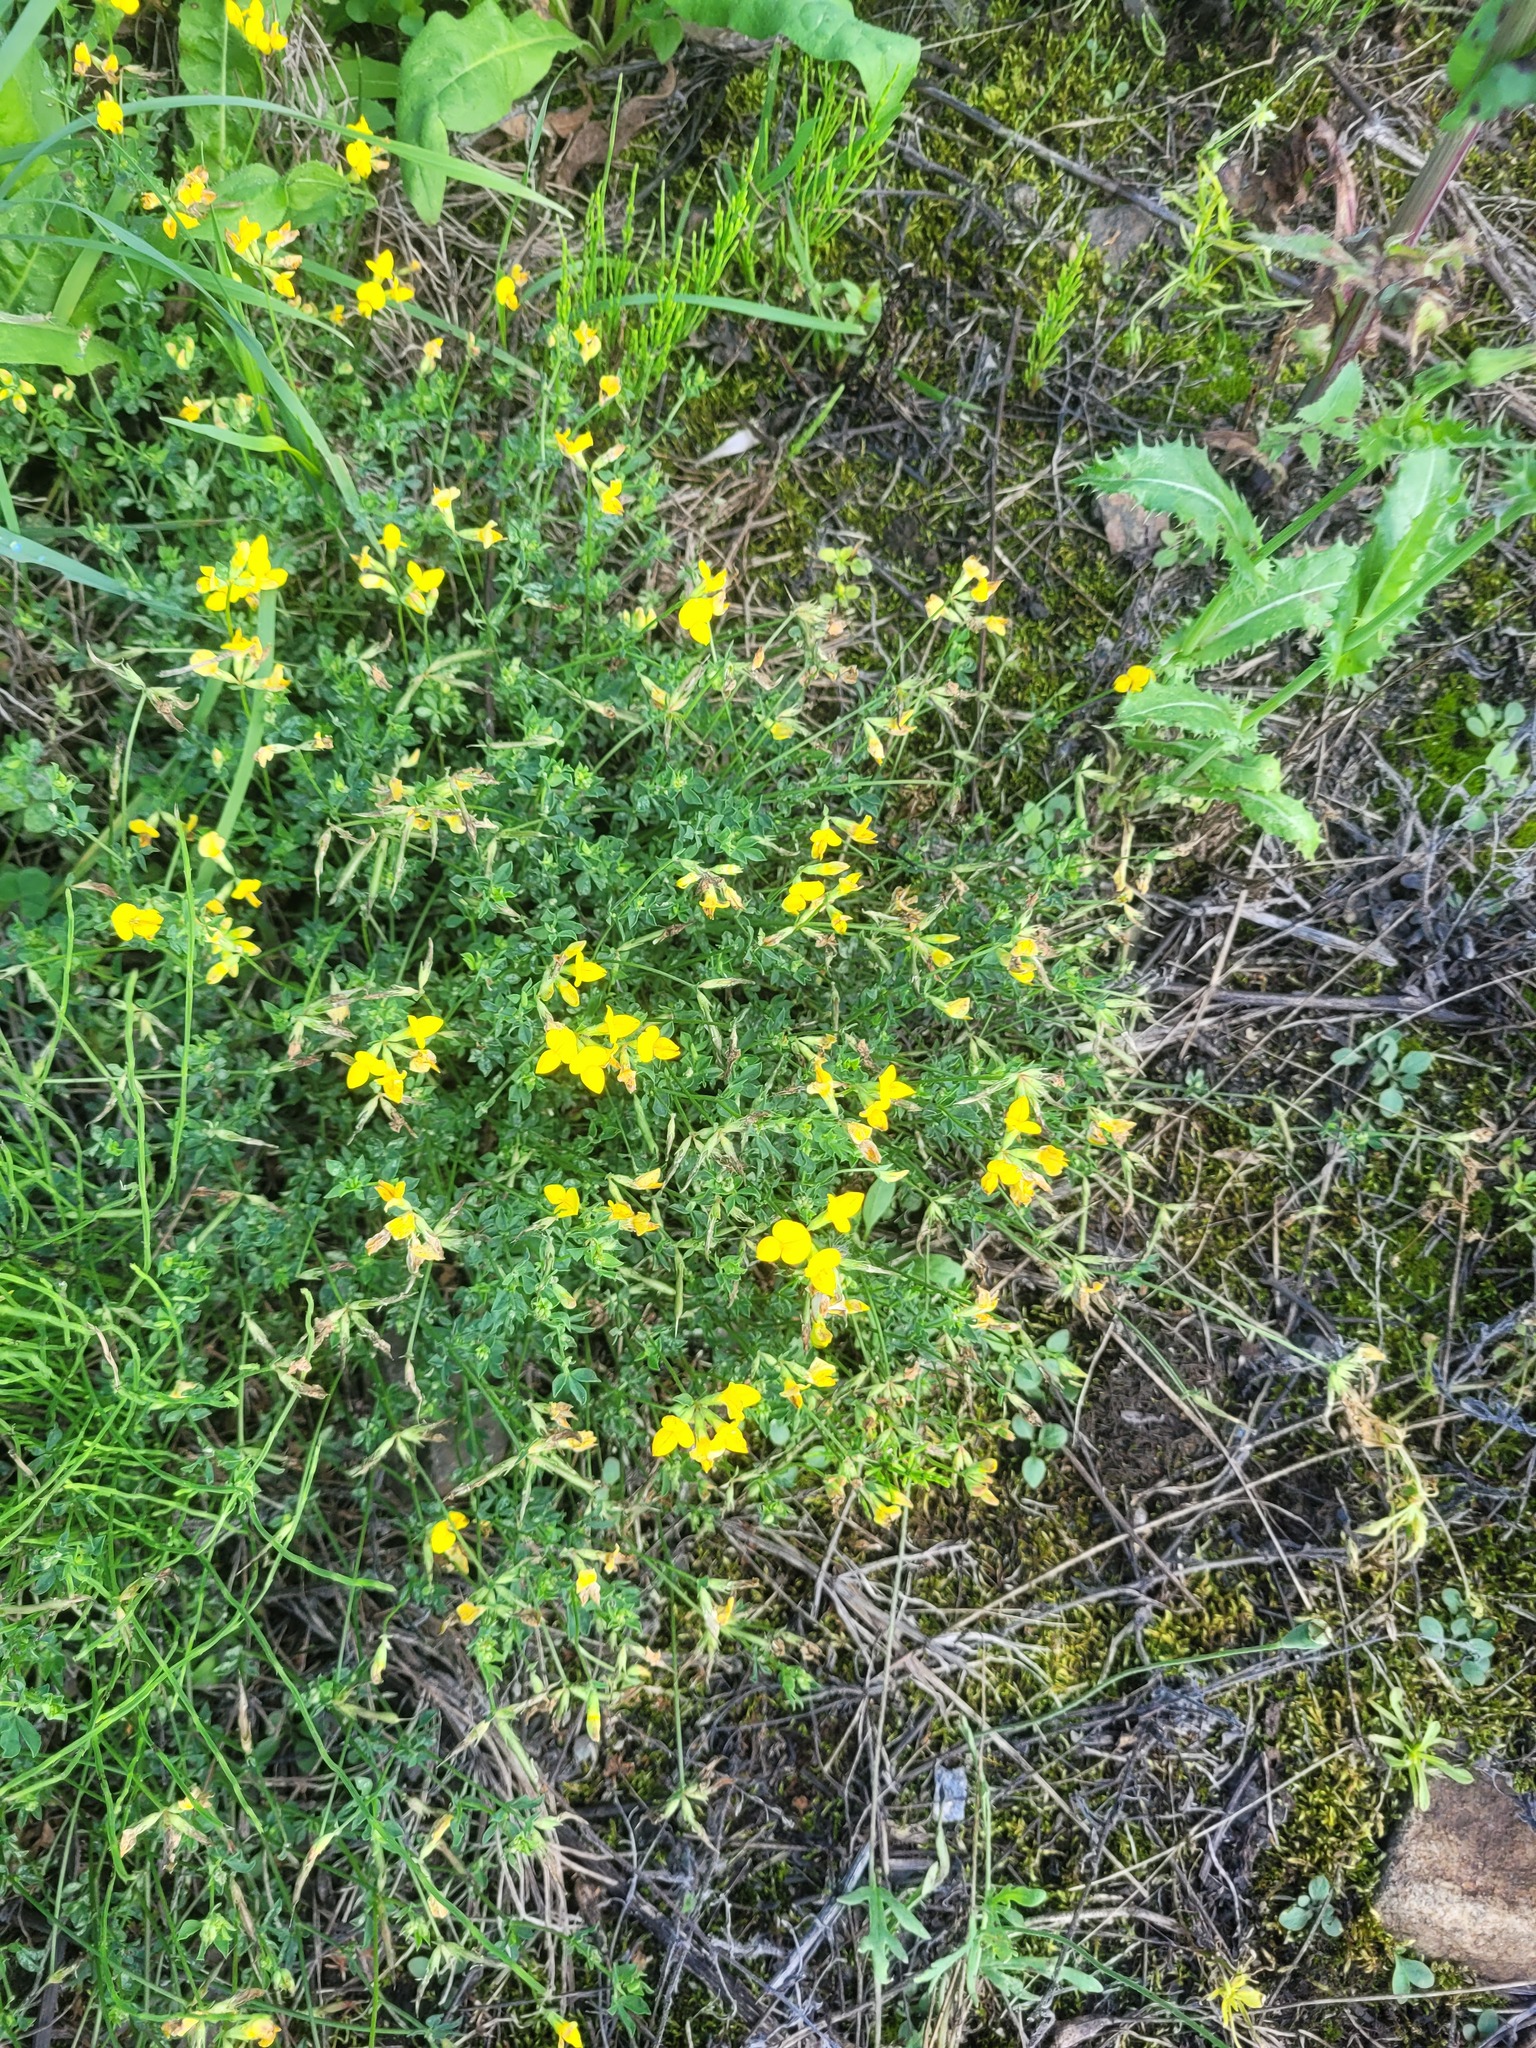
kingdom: Plantae
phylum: Tracheophyta
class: Magnoliopsida
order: Fabales
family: Fabaceae
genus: Lotus
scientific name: Lotus corniculatus
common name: Common bird's-foot-trefoil
